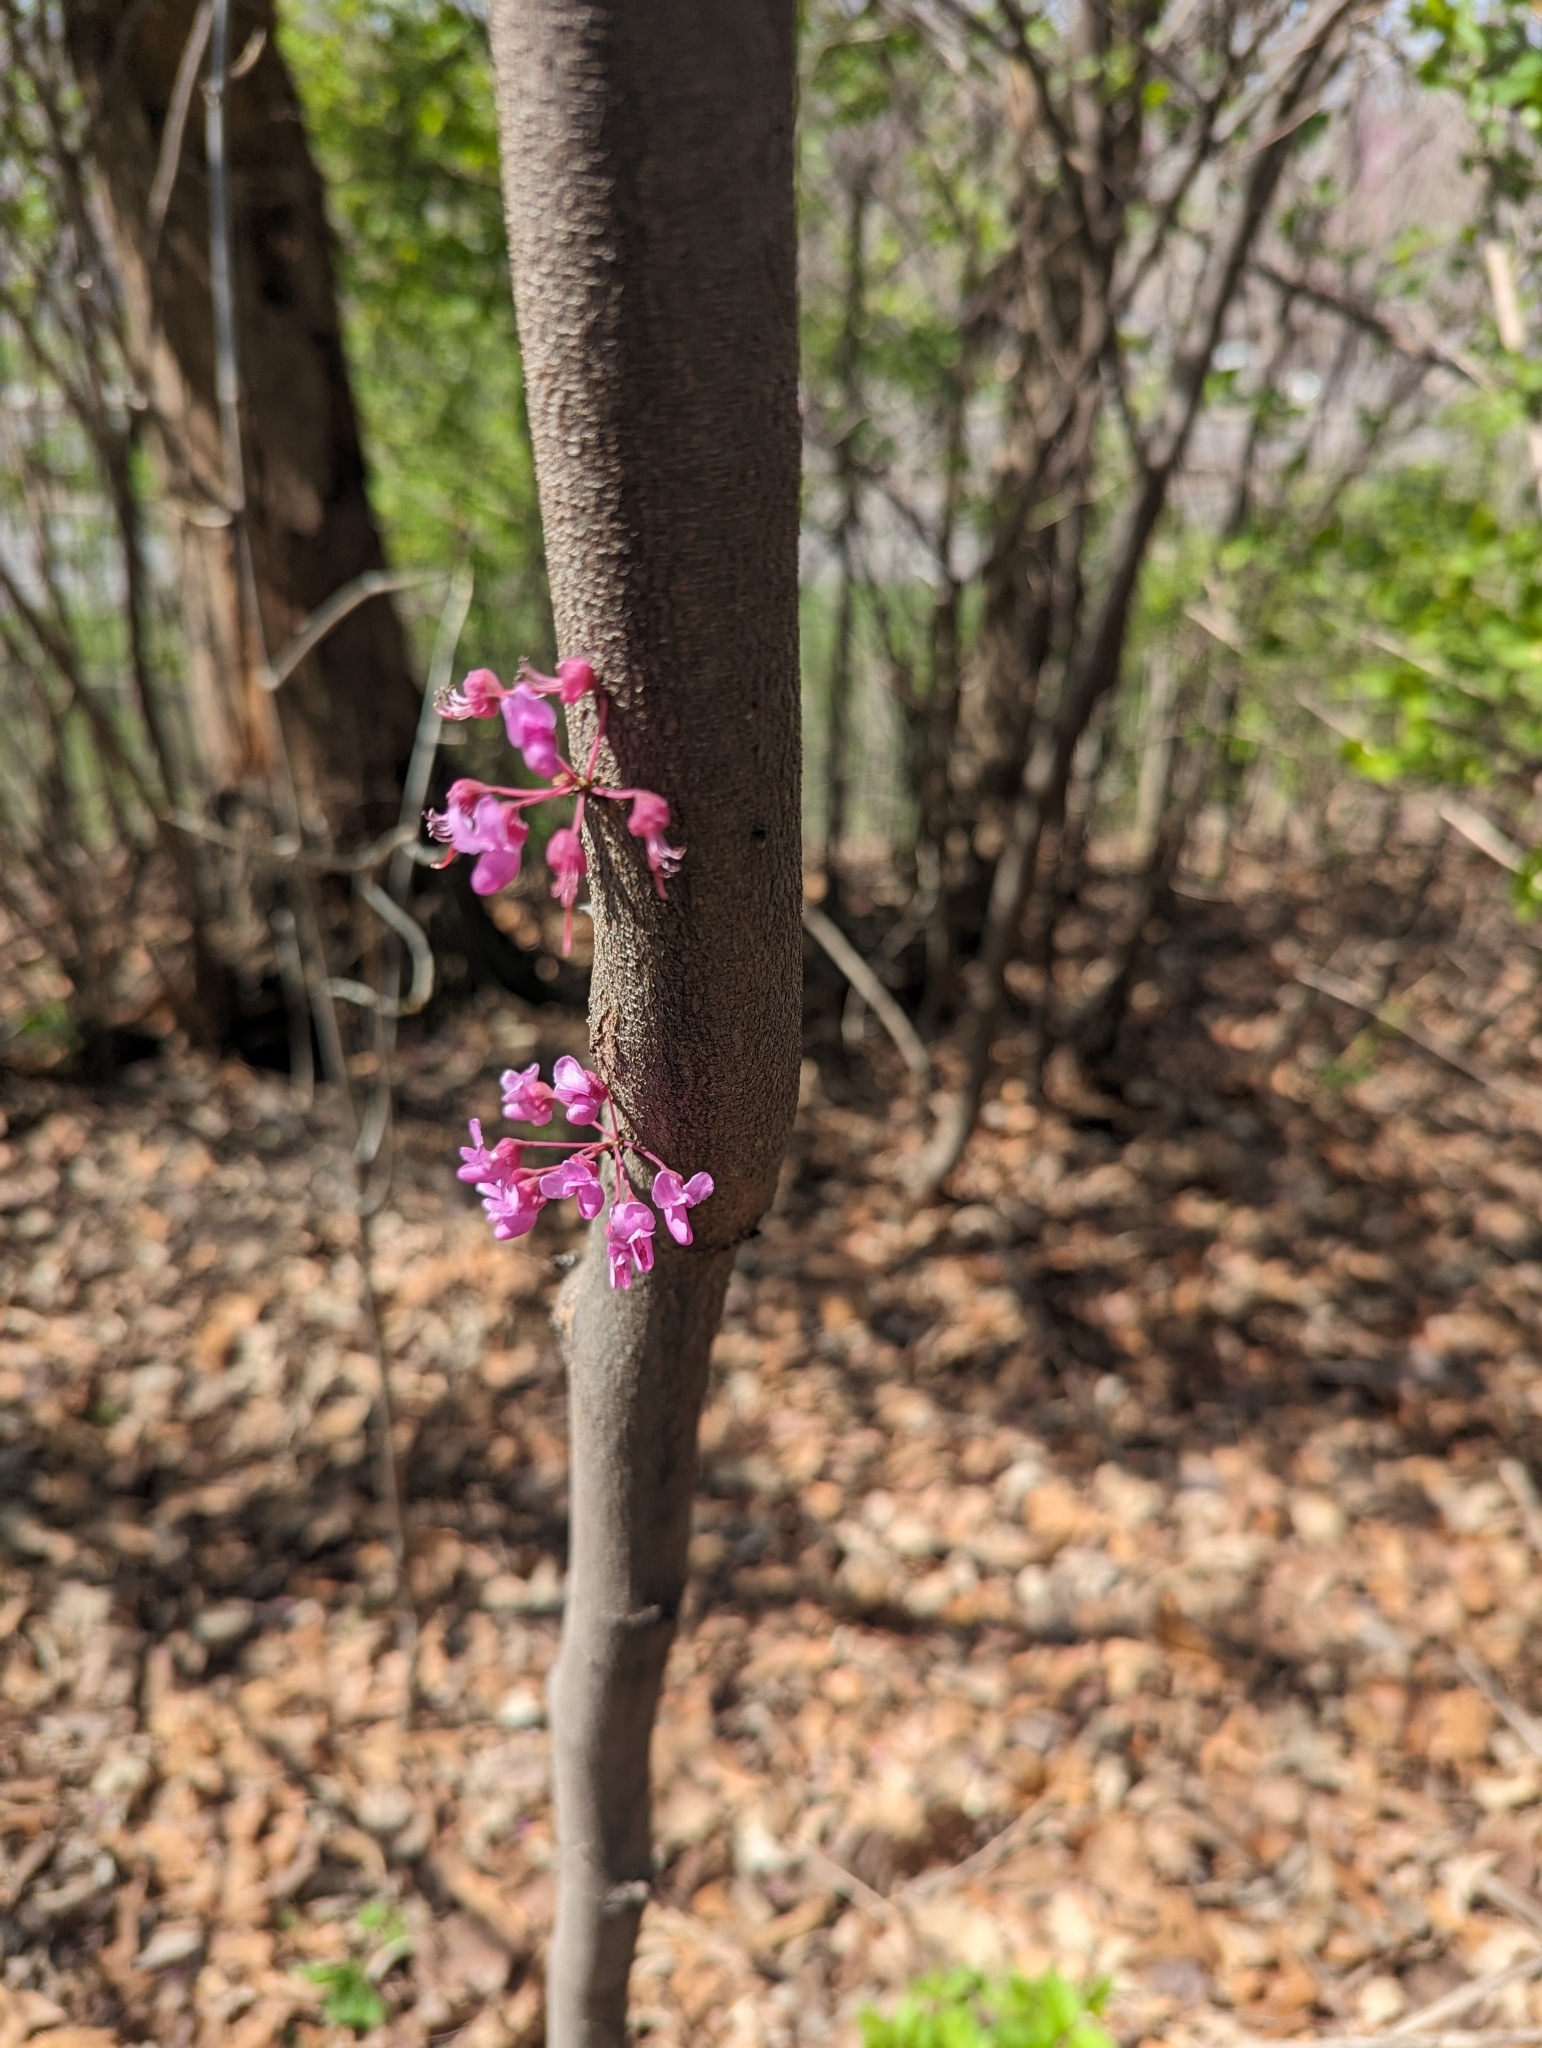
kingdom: Plantae
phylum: Tracheophyta
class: Magnoliopsida
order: Fabales
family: Fabaceae
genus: Cercis
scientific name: Cercis canadensis
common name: Eastern redbud
